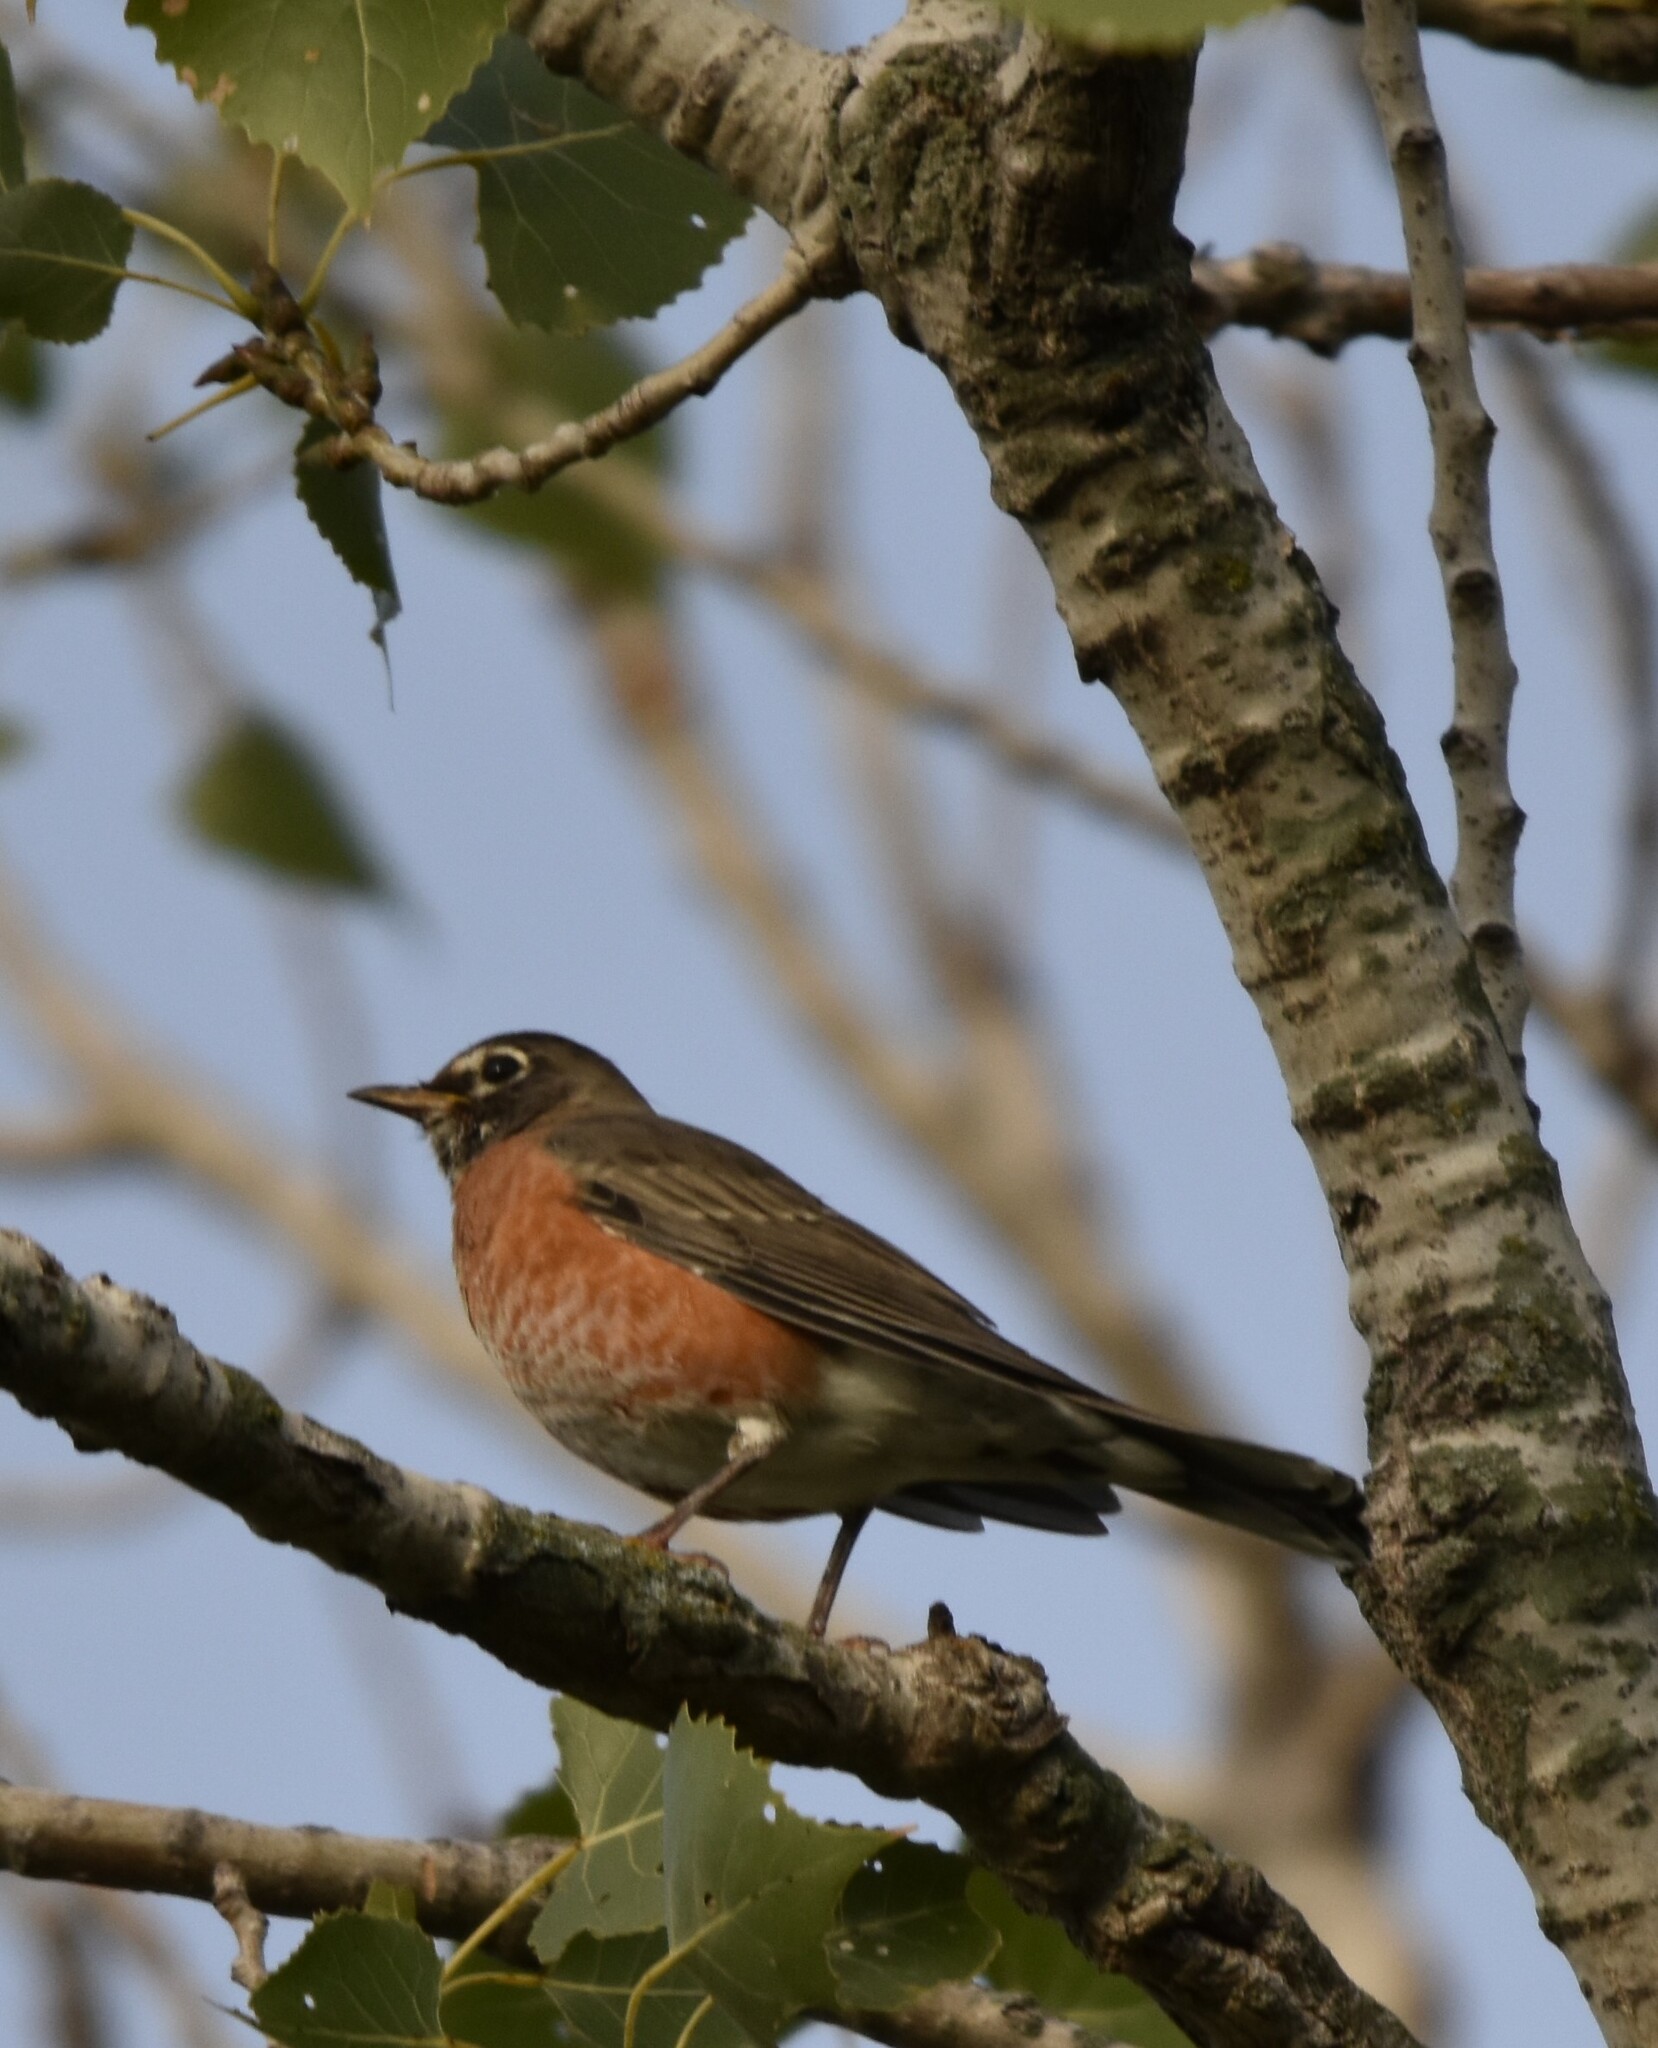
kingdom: Animalia
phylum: Chordata
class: Aves
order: Passeriformes
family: Turdidae
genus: Turdus
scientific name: Turdus migratorius
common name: American robin
